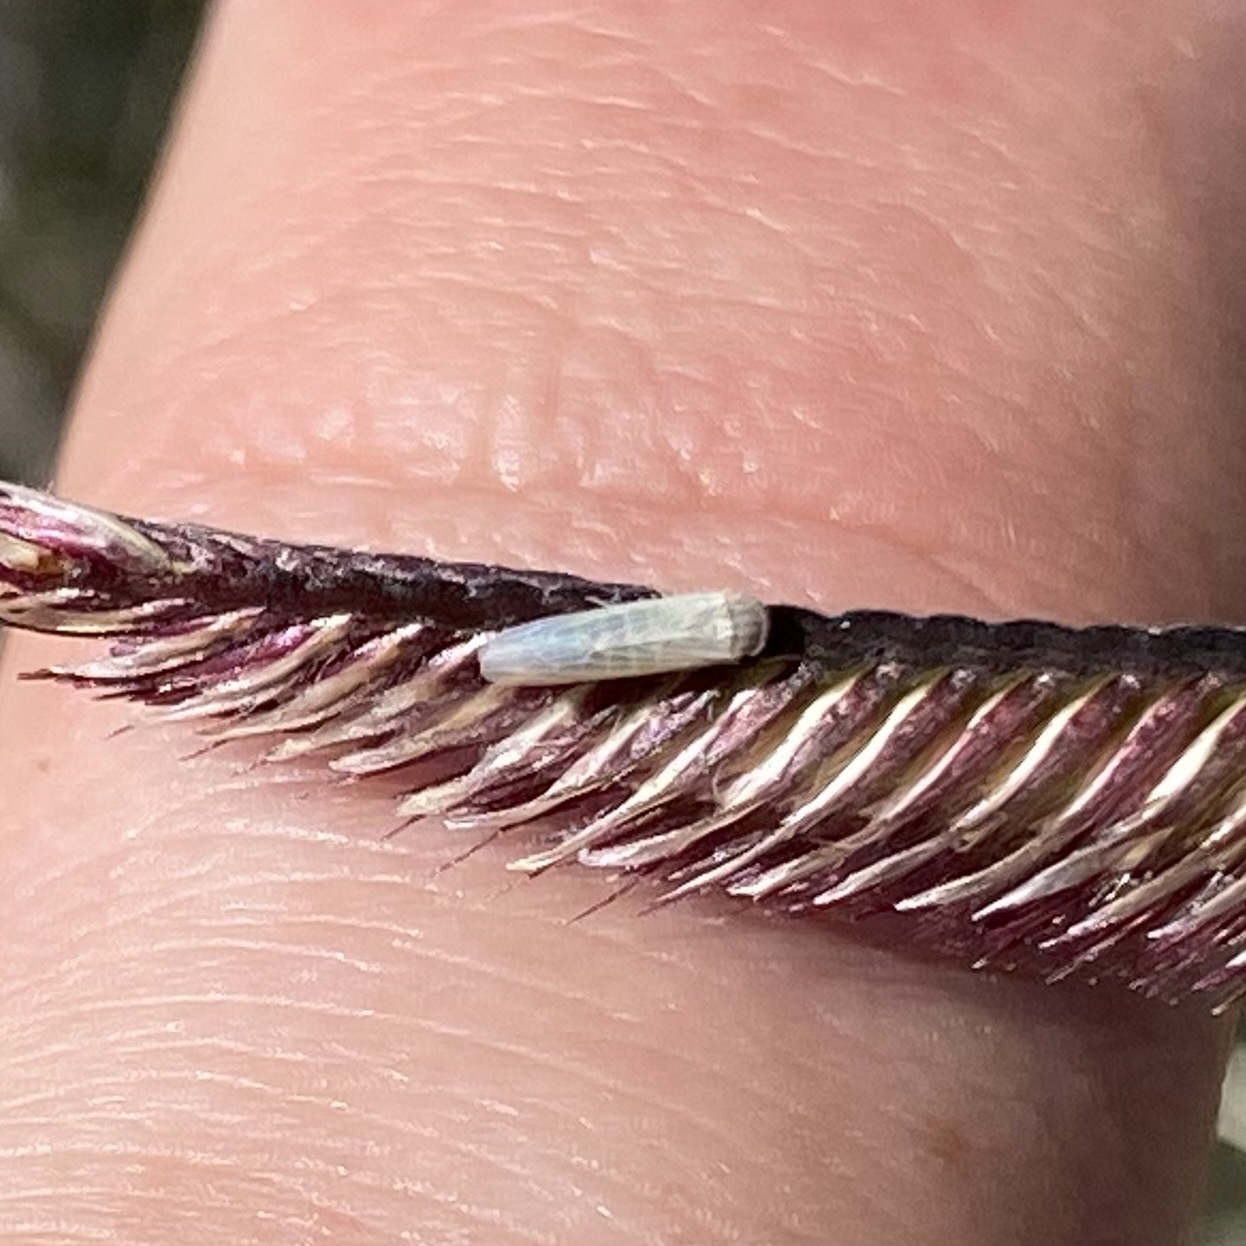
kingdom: Animalia
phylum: Arthropoda
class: Insecta
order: Hemiptera
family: Cicadellidae
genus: Balclutha
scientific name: Balclutha
